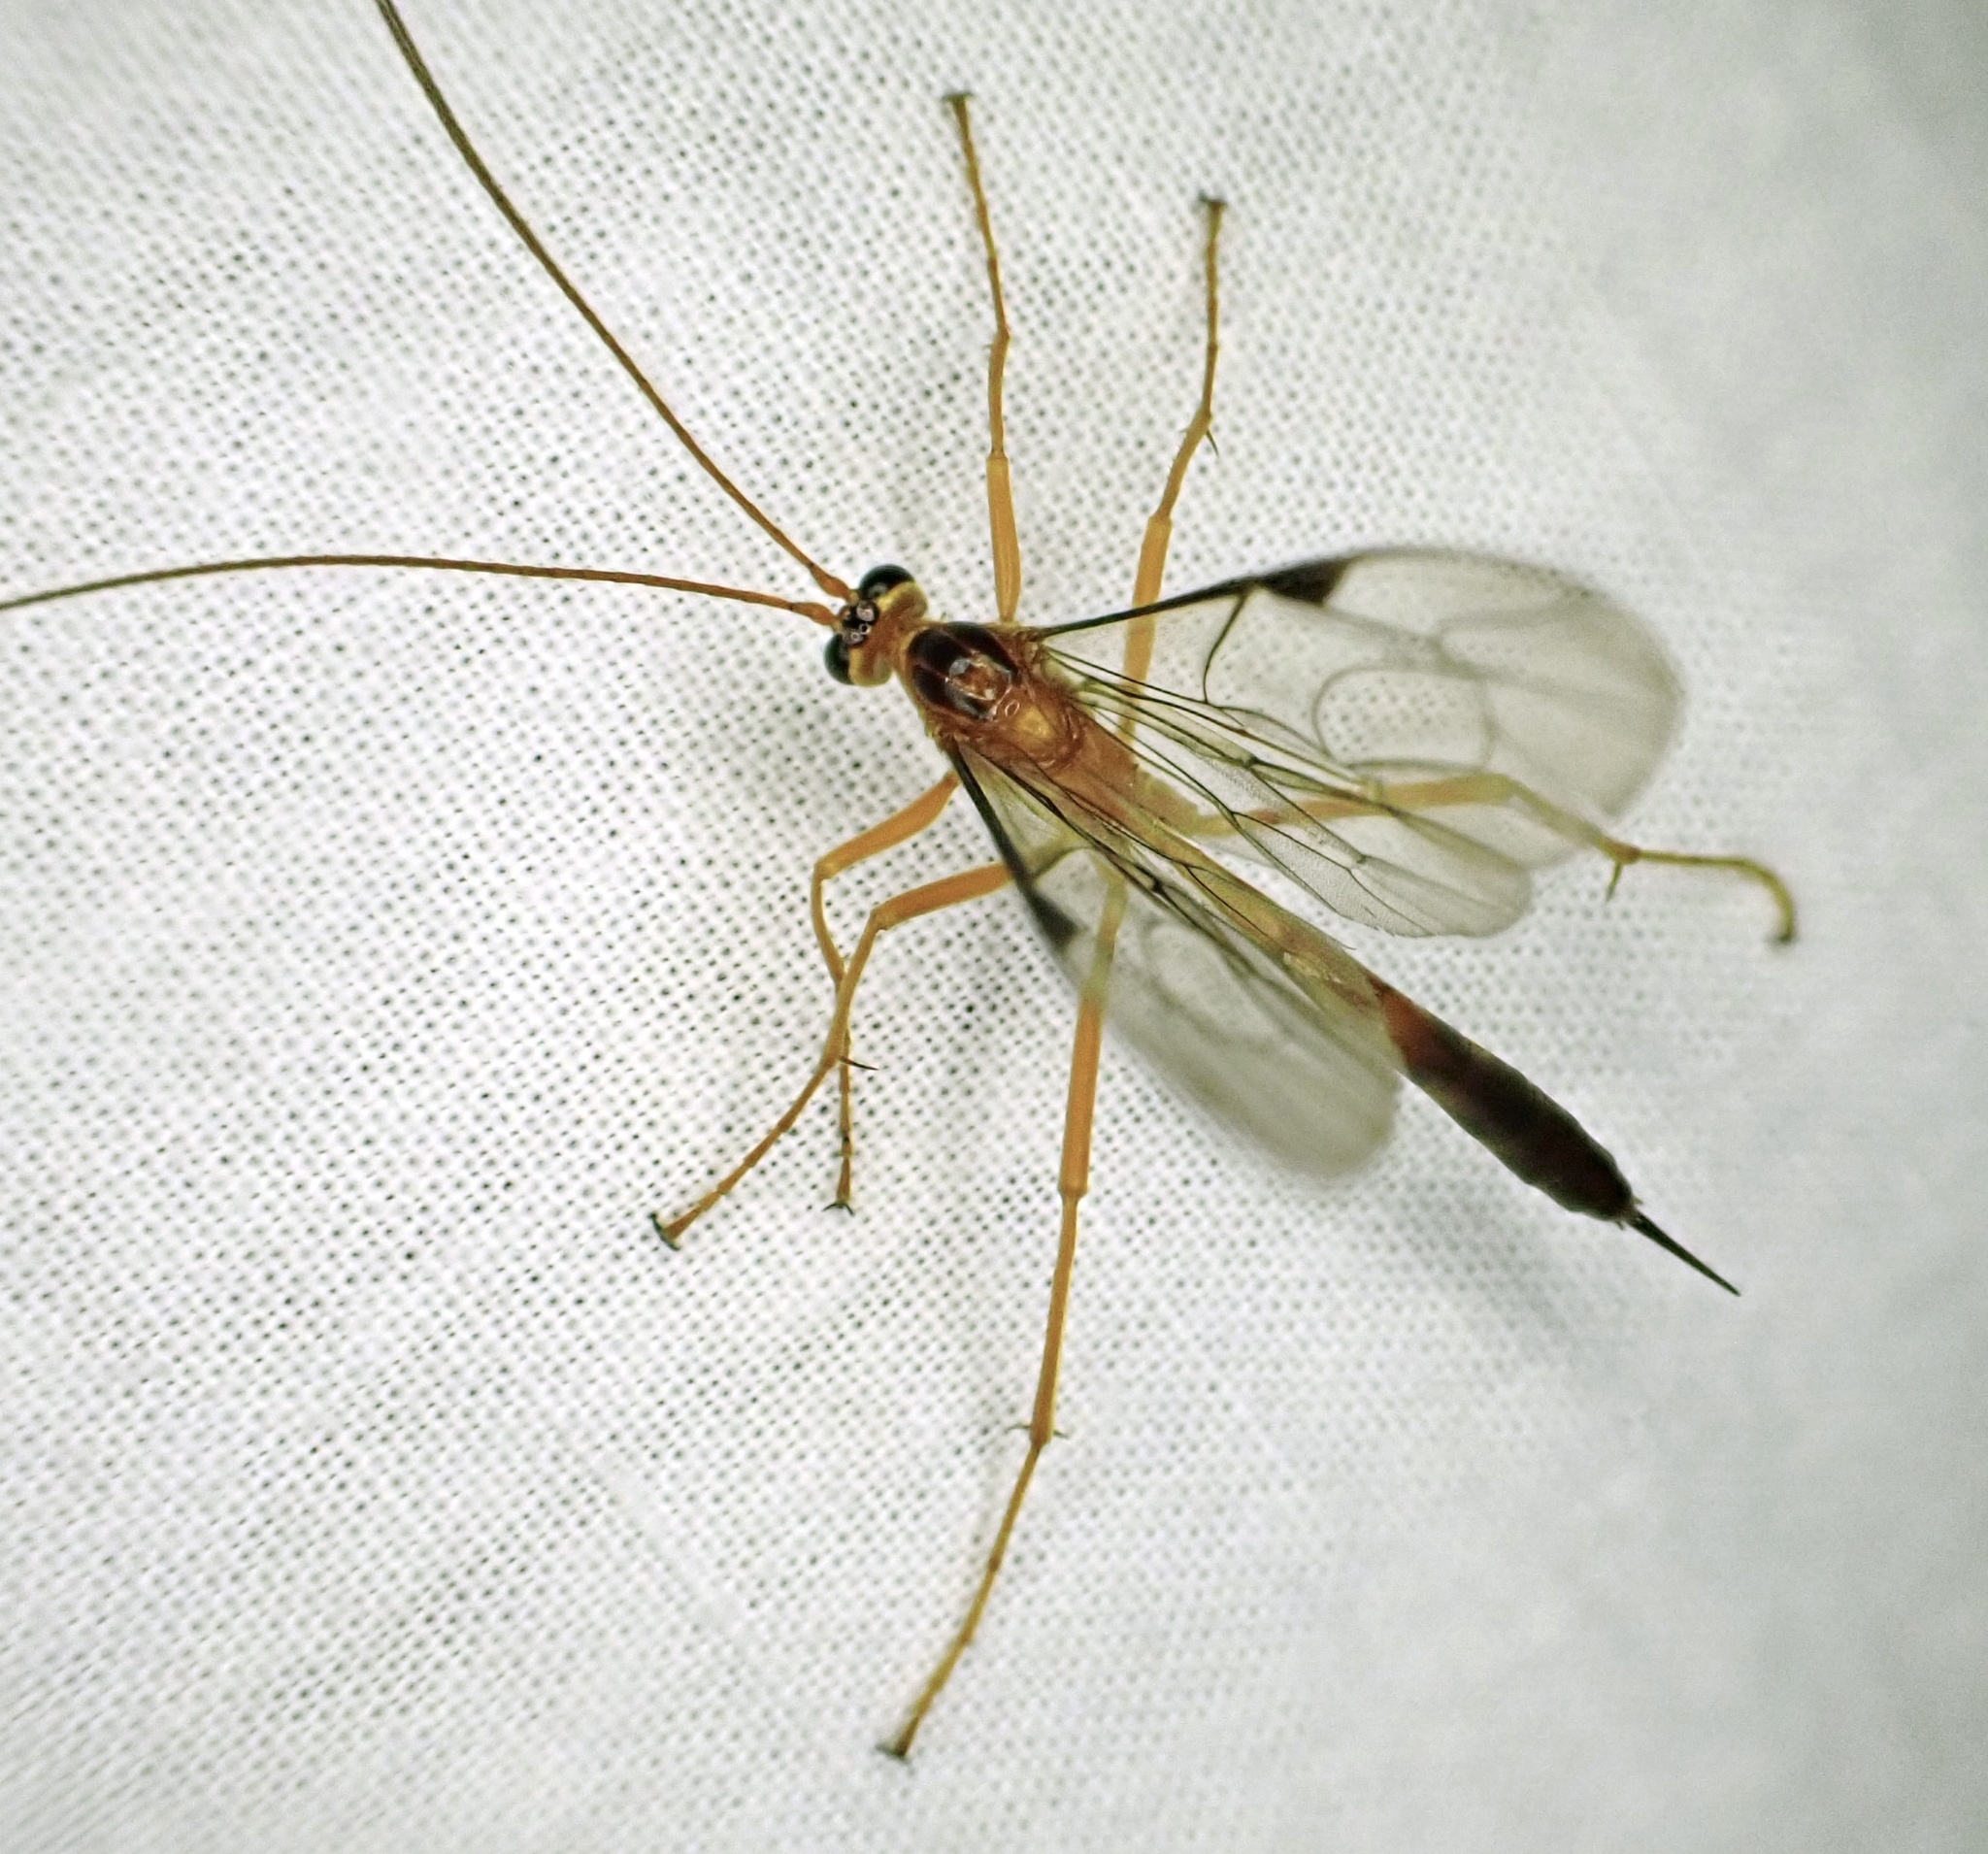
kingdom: Animalia
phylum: Arthropoda
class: Insecta
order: Hymenoptera
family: Ichneumonidae
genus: Netelia
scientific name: Netelia ephippiata
